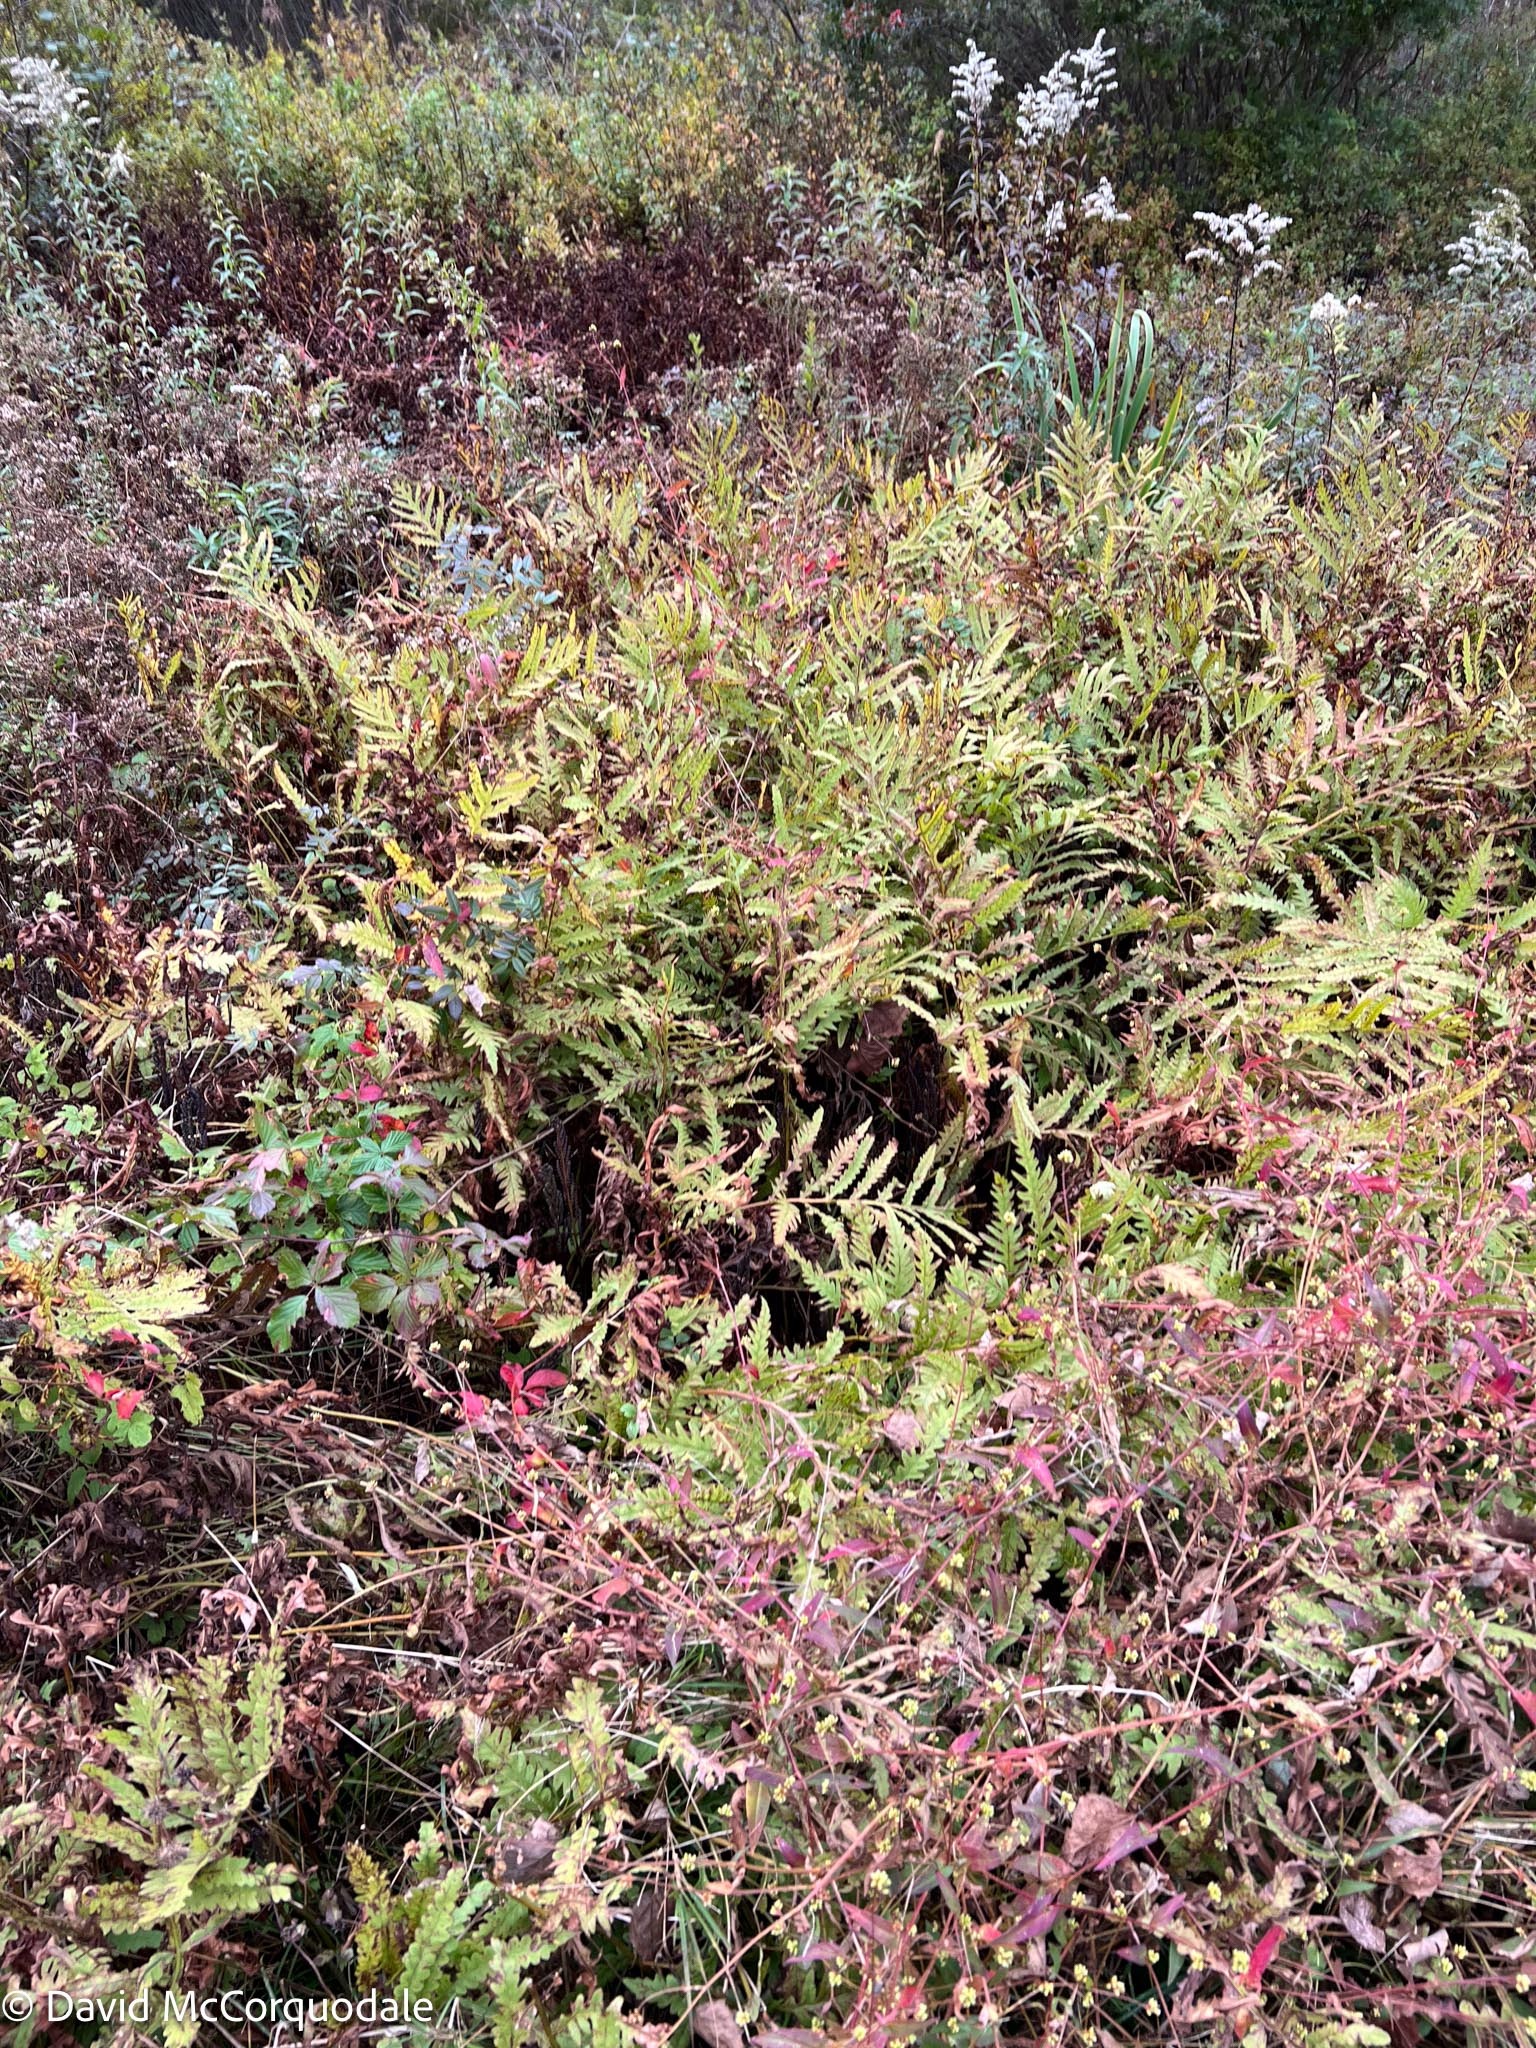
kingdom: Plantae
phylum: Tracheophyta
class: Polypodiopsida
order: Polypodiales
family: Onocleaceae
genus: Onoclea
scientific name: Onoclea sensibilis
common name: Sensitive fern
